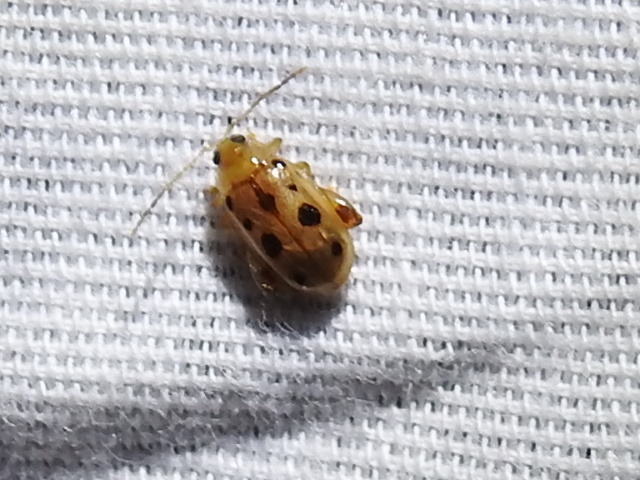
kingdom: Animalia
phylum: Arthropoda
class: Insecta
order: Coleoptera
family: Chrysomelidae
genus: Capraita
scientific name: Capraita nigrosignata
